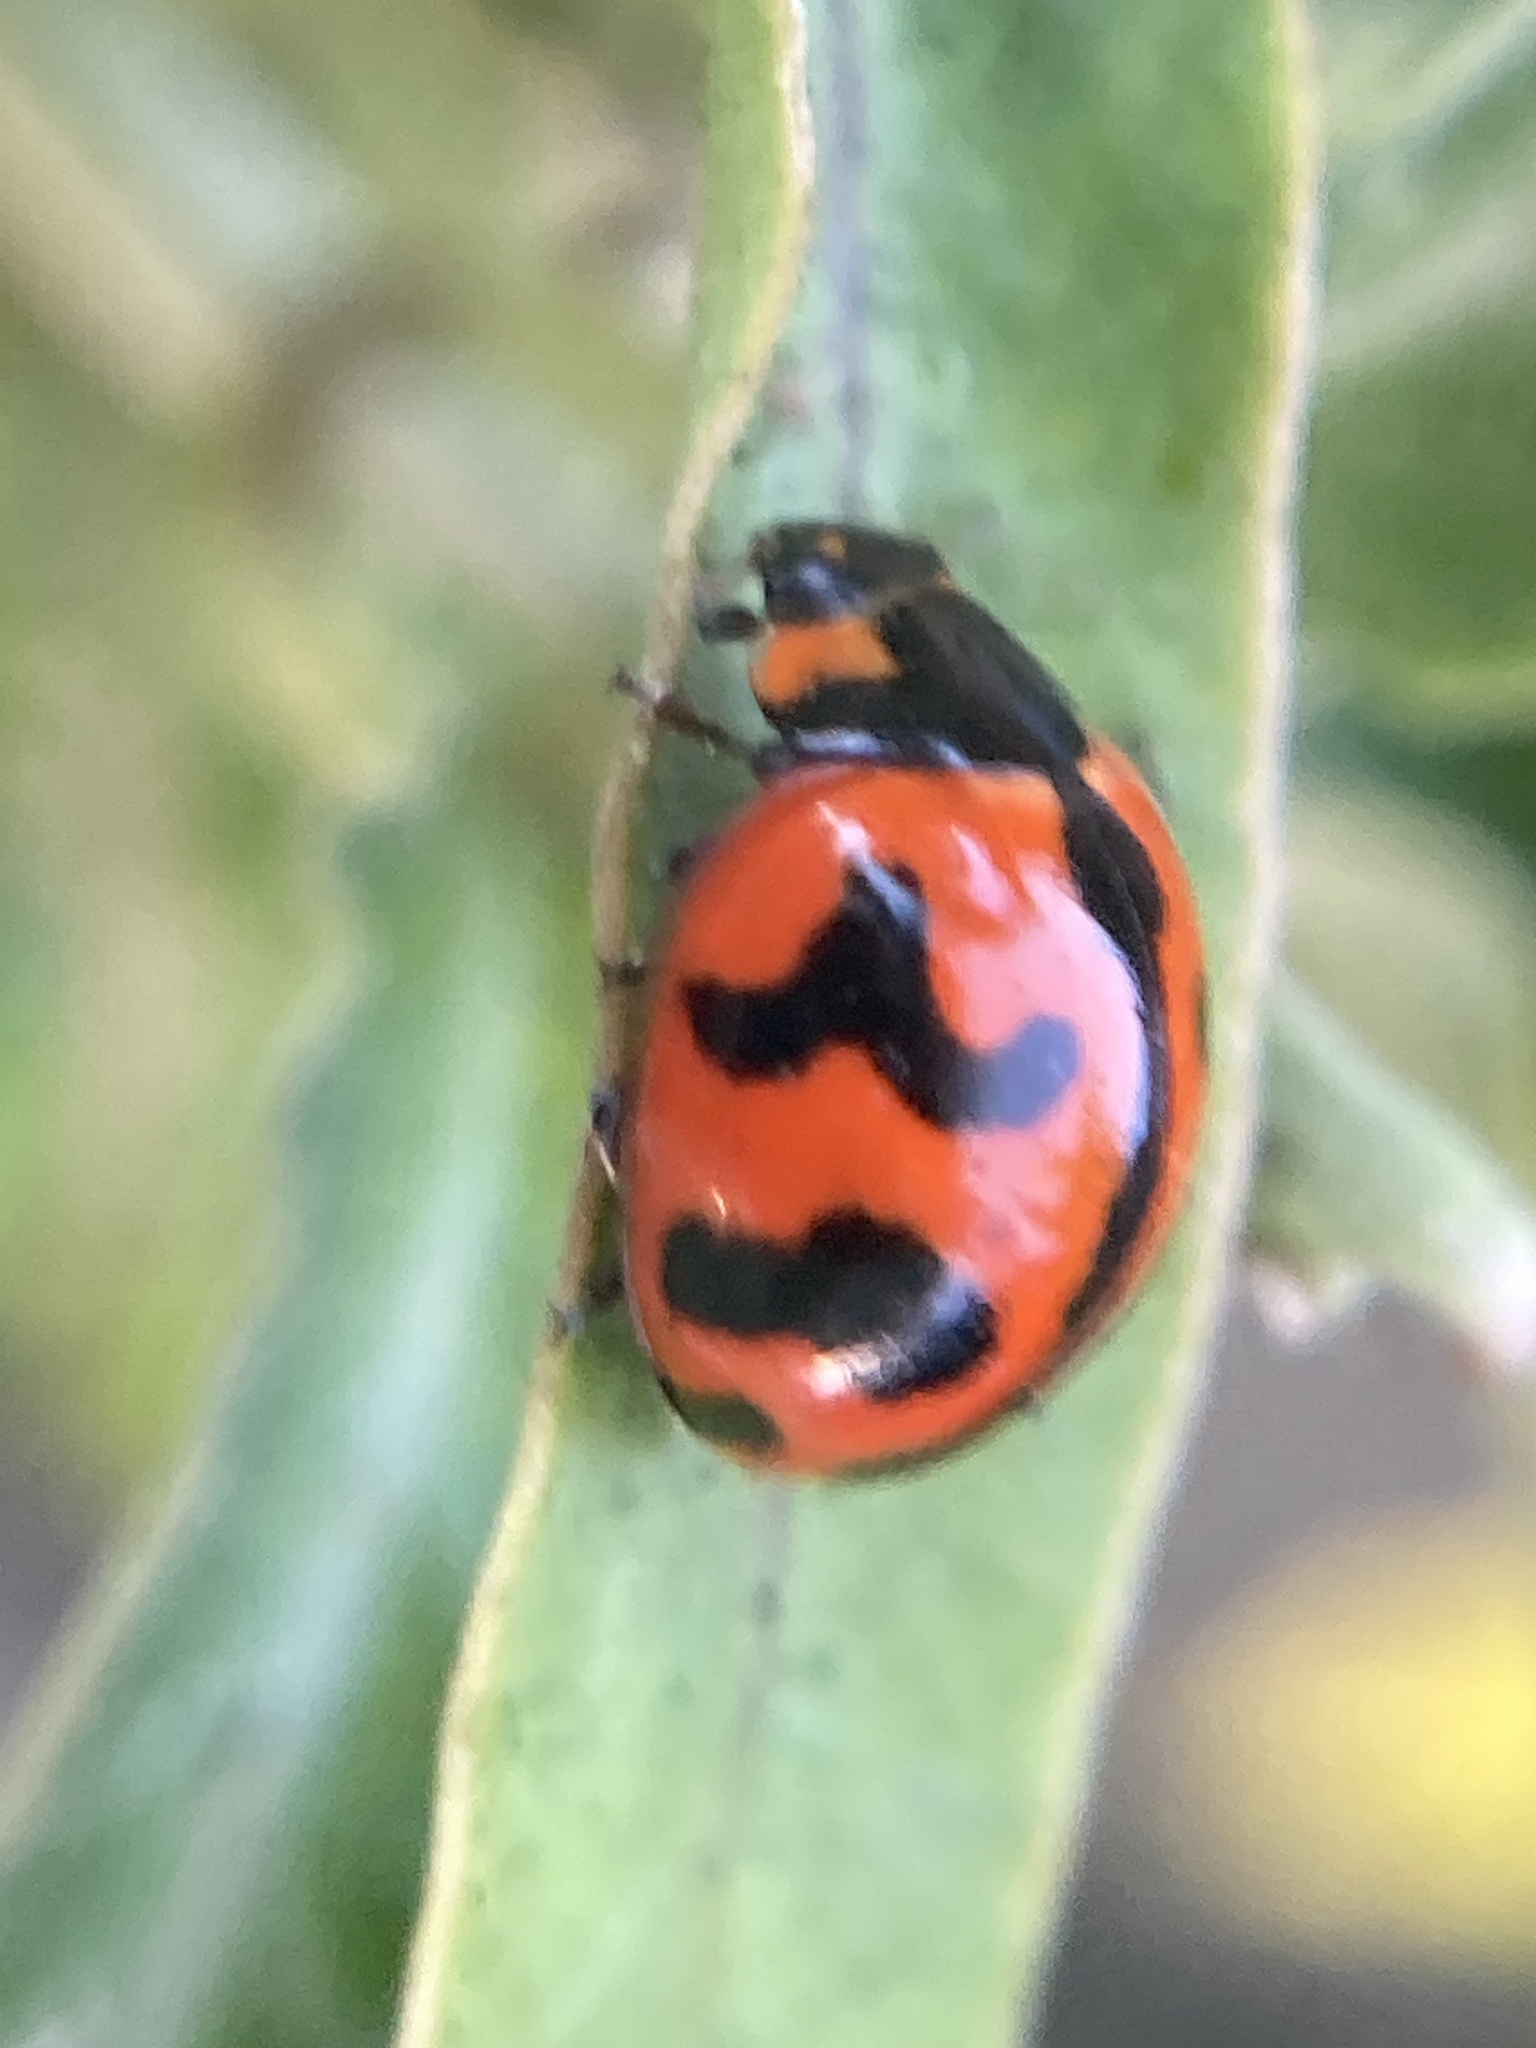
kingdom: Animalia
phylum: Arthropoda
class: Insecta
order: Coleoptera
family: Coccinellidae
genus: Coccinella
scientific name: Coccinella transversalis
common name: Transverse lady beetle
